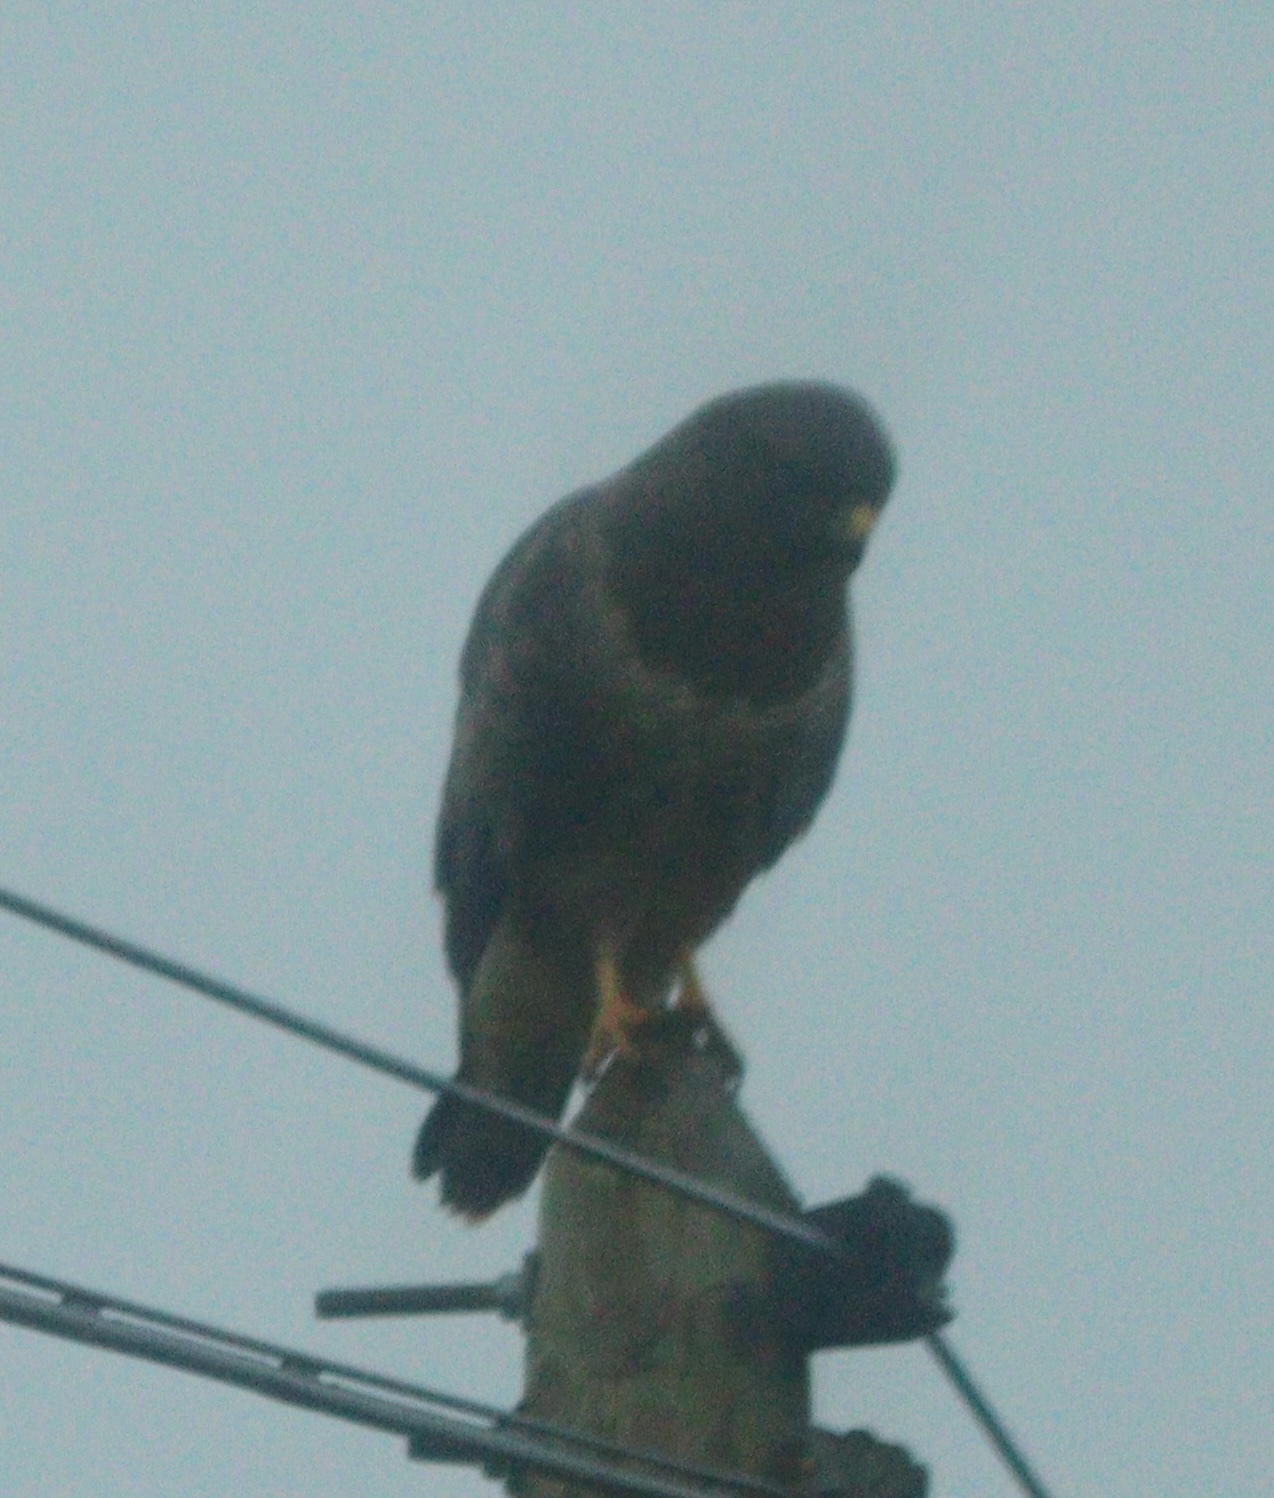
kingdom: Animalia
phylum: Chordata
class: Aves
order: Accipitriformes
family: Accipitridae
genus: Buteo
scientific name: Buteo buteo
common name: Common buzzard
